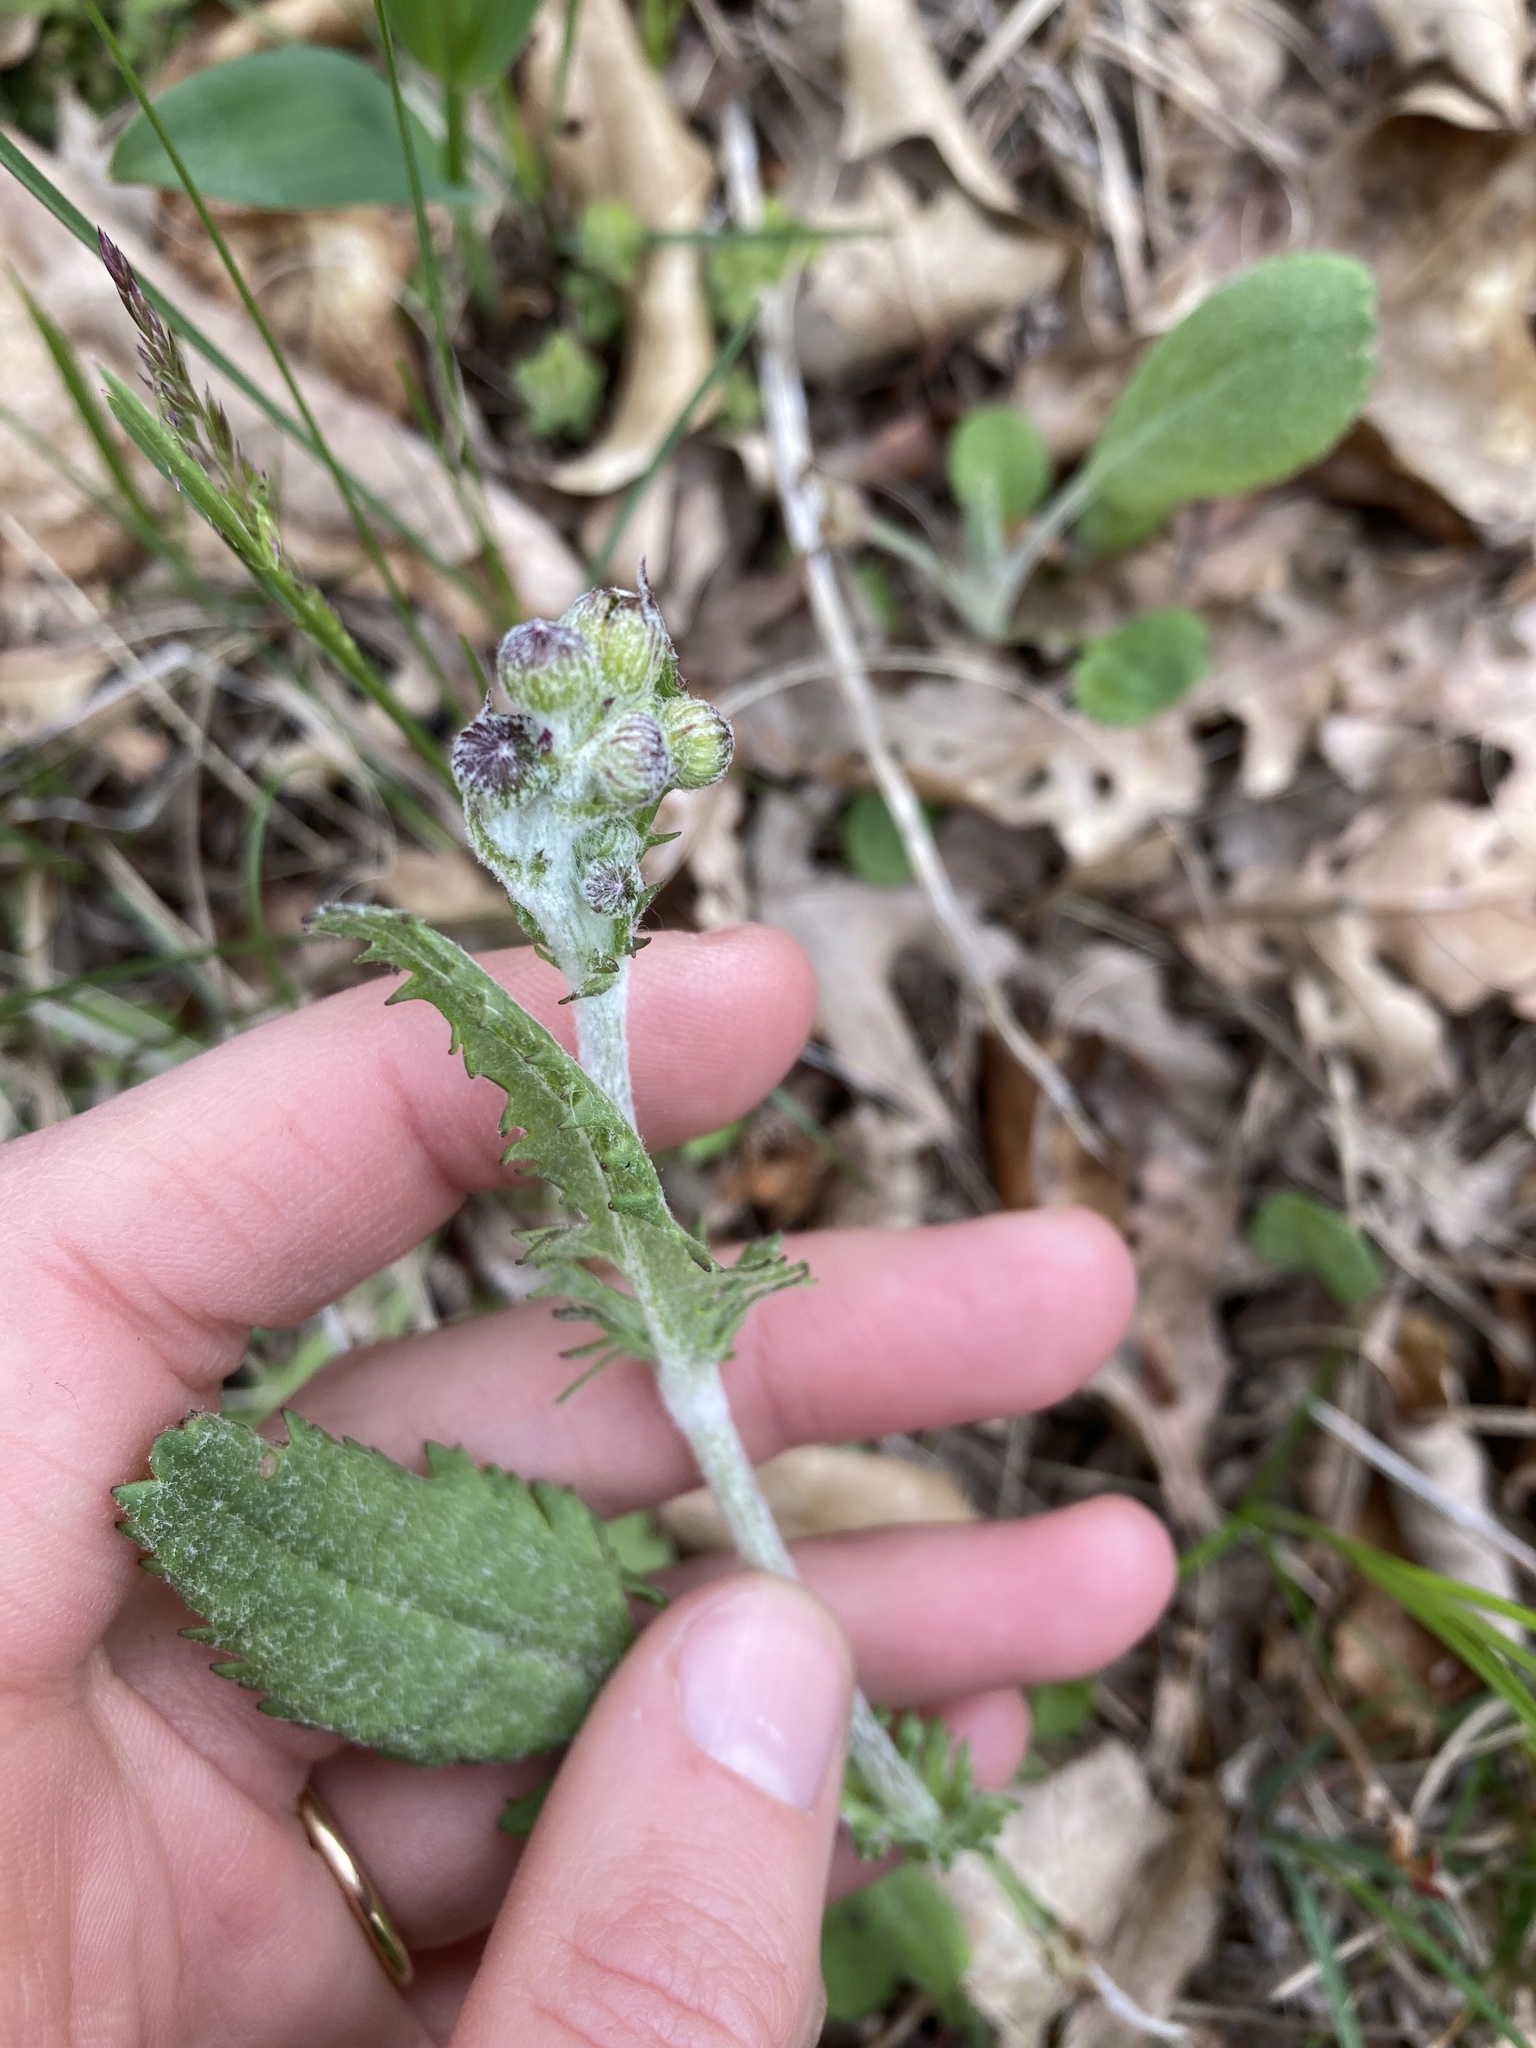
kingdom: Plantae
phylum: Tracheophyta
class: Magnoliopsida
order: Asterales
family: Asteraceae
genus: Packera
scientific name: Packera paupercula
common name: Balsam groundsel
